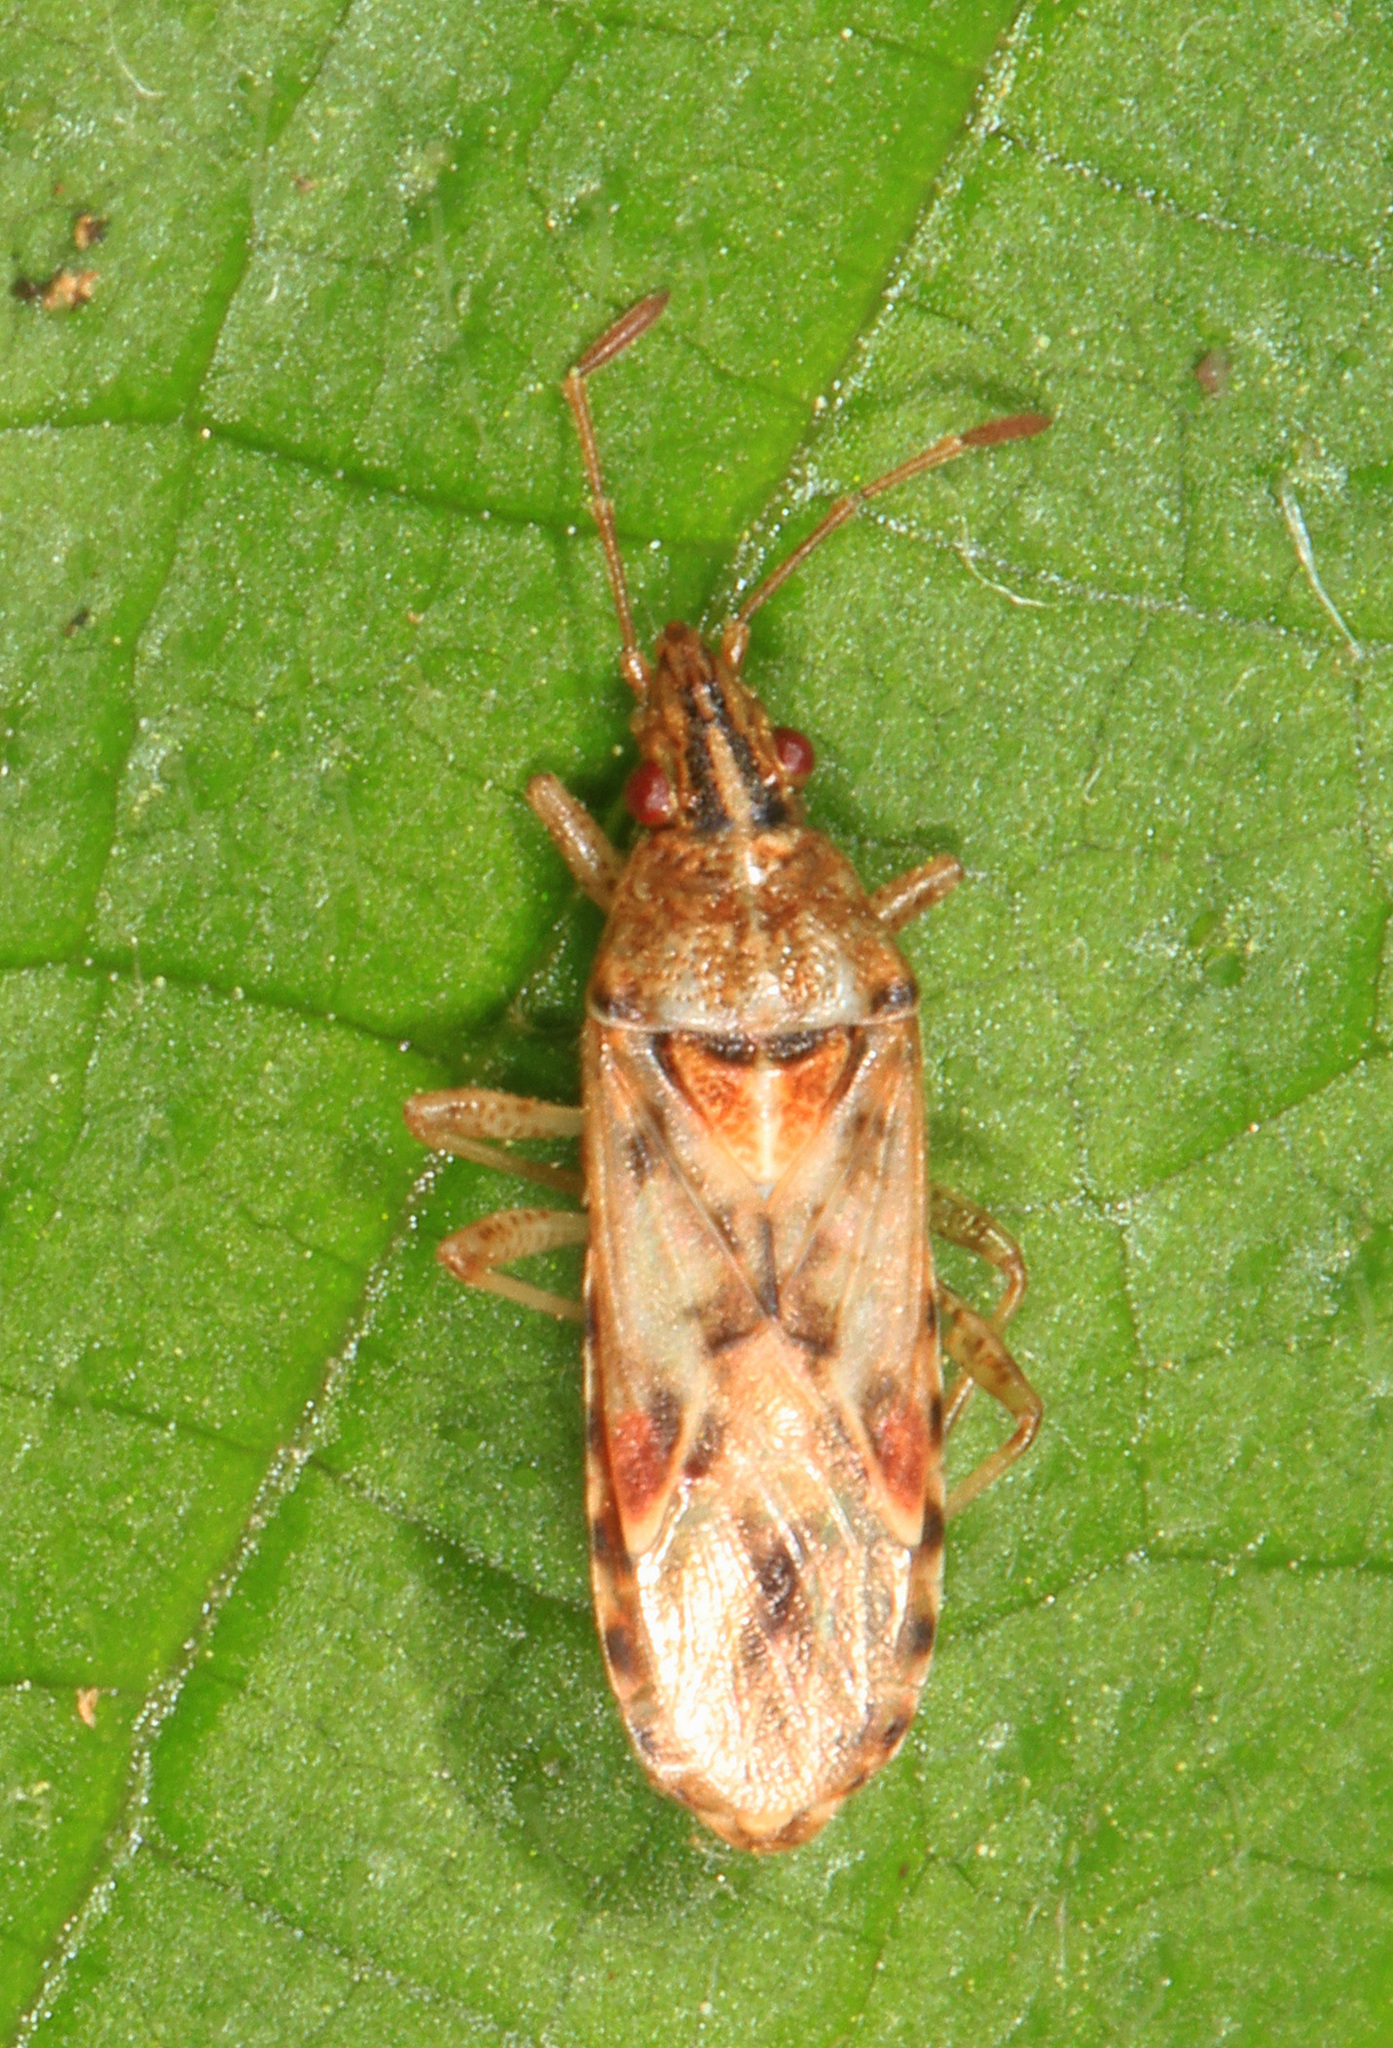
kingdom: Animalia
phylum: Arthropoda
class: Insecta
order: Hemiptera
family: Lygaeidae
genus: Belonochilus
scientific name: Belonochilus numenius
